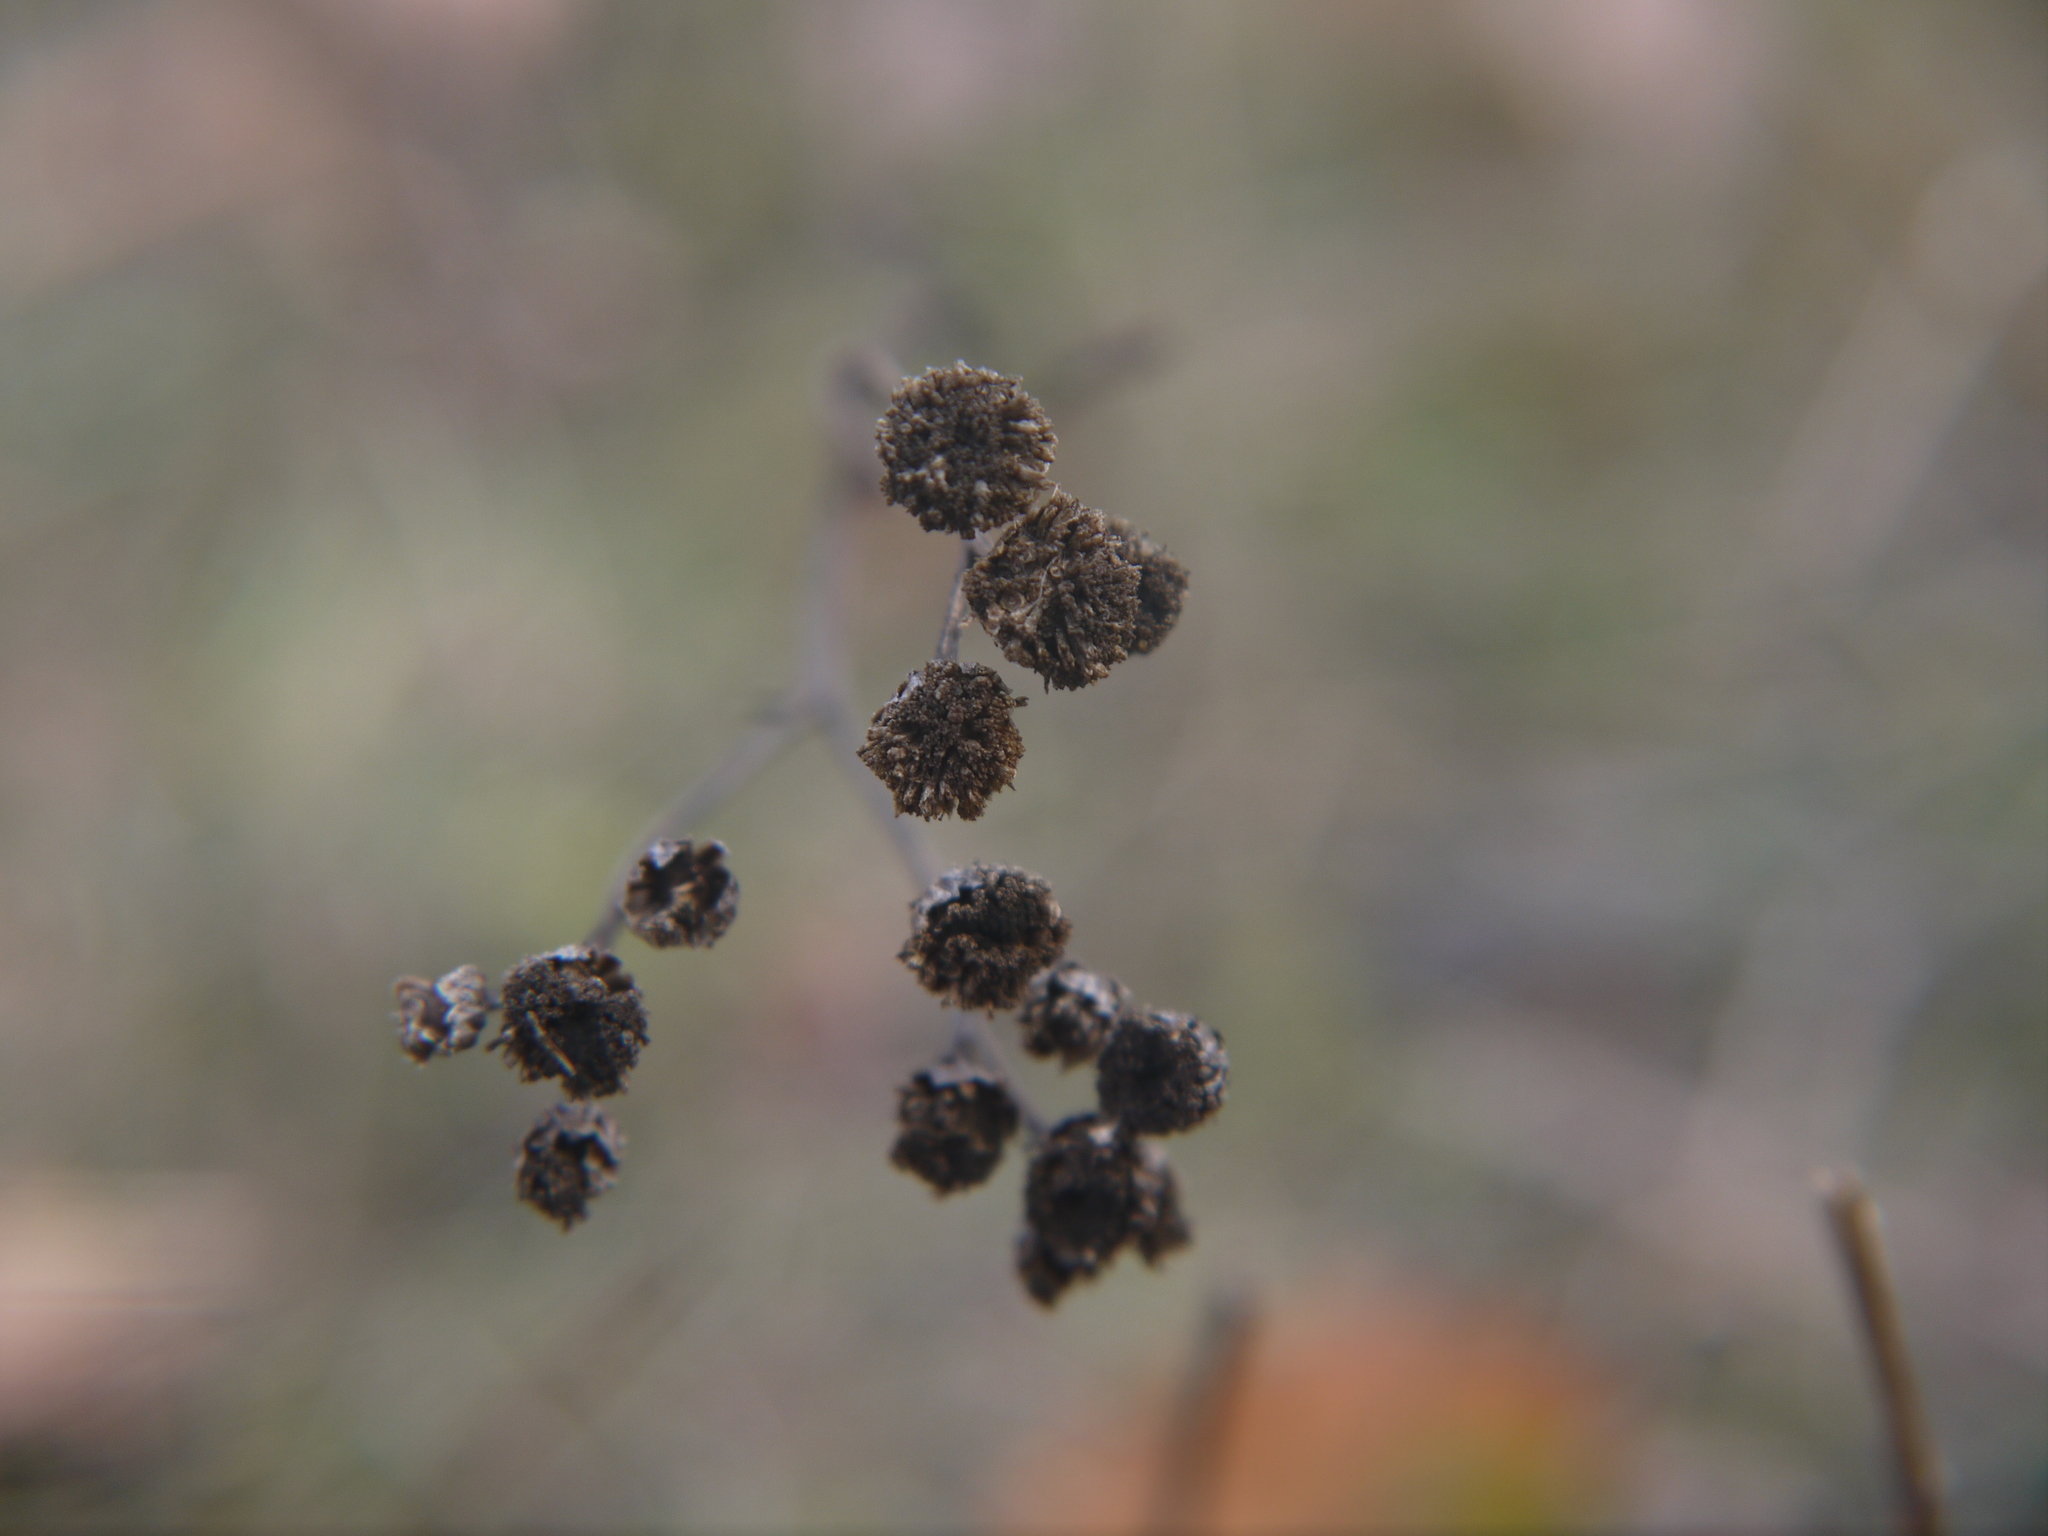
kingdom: Plantae
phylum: Tracheophyta
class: Magnoliopsida
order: Asterales
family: Asteraceae
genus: Tanacetum
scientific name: Tanacetum vulgare
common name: Common tansy
